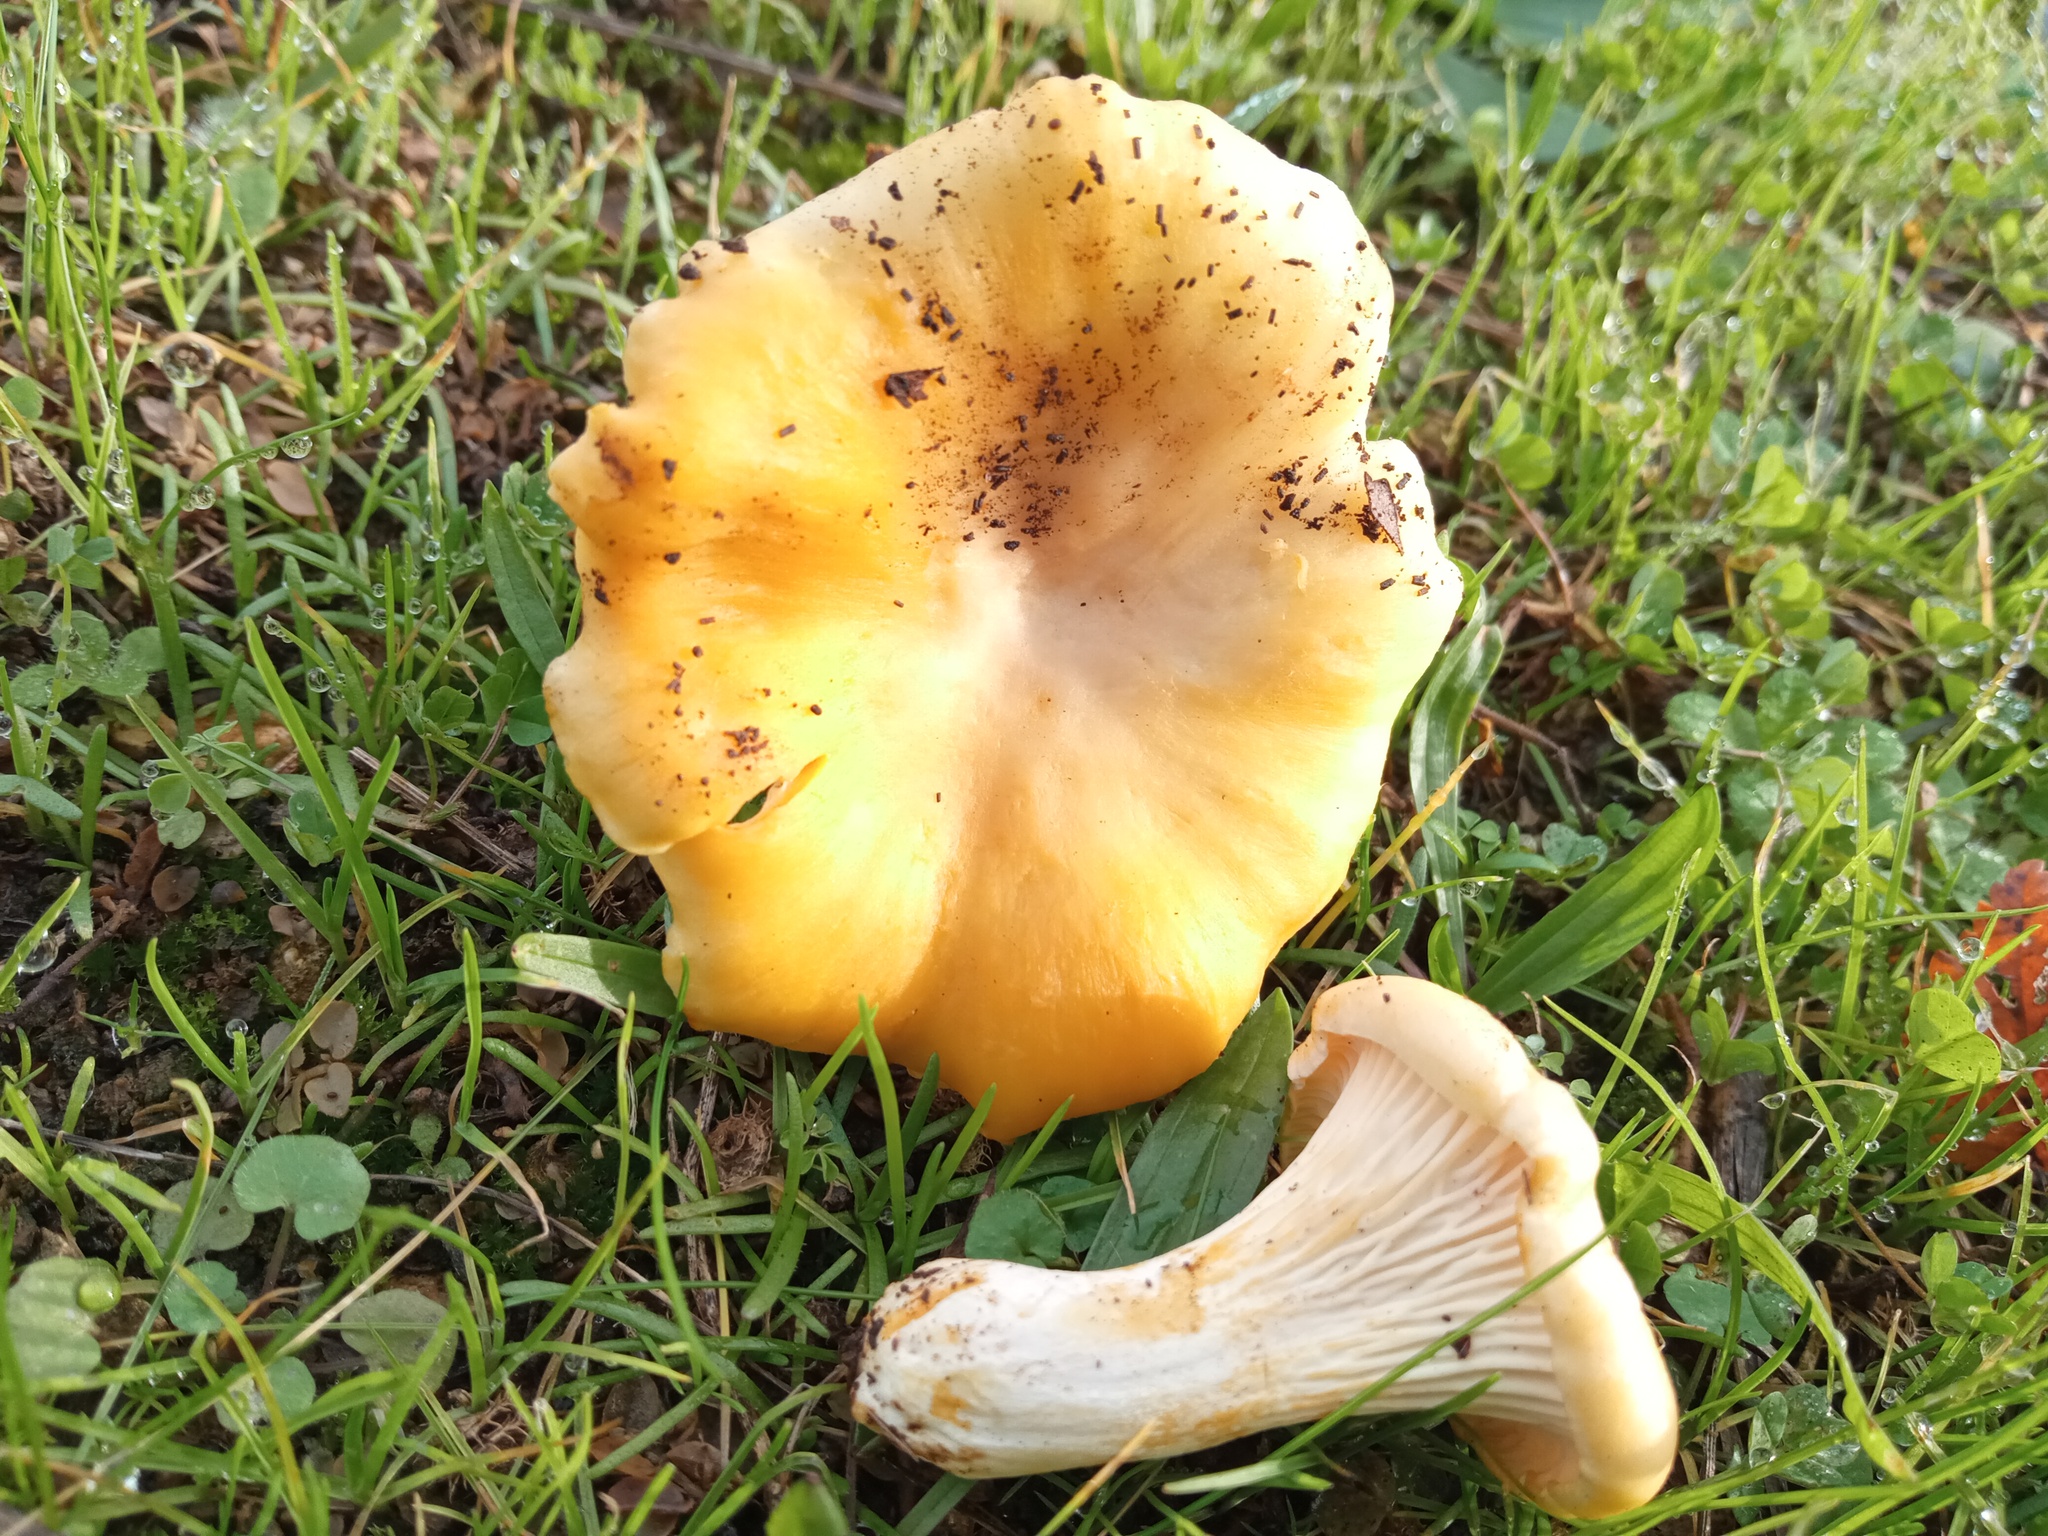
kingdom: Fungi
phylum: Basidiomycota
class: Agaricomycetes
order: Cantharellales
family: Hydnaceae
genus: Cantharellus
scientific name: Cantharellus pallens
